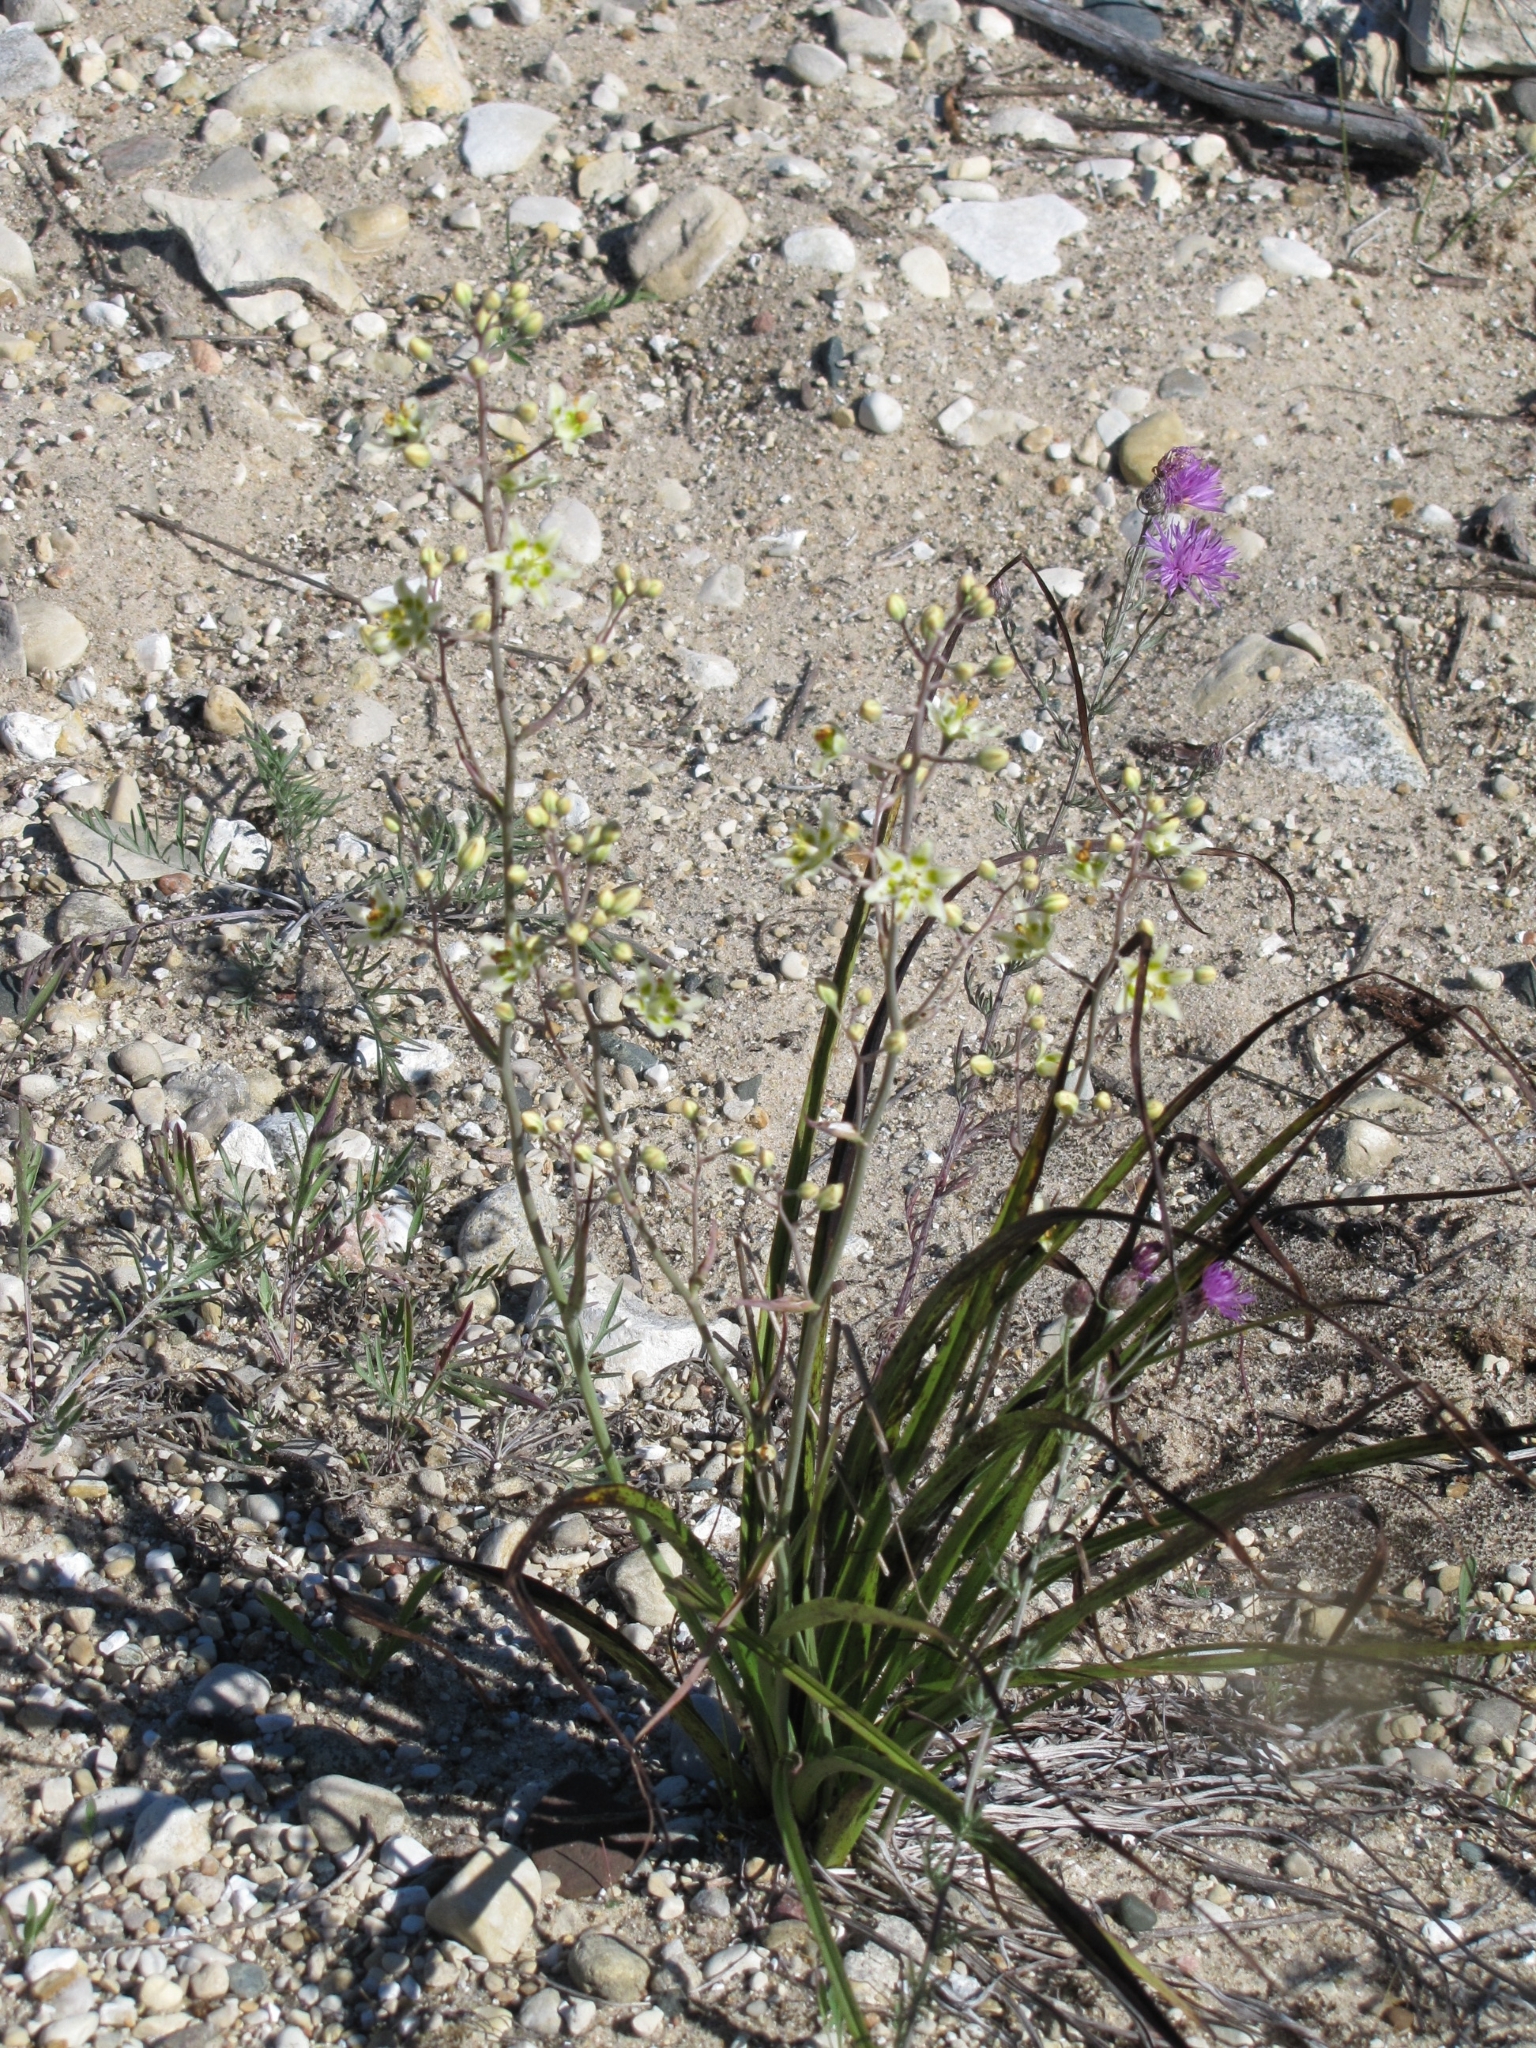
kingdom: Plantae
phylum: Tracheophyta
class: Liliopsida
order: Liliales
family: Melanthiaceae
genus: Anticlea
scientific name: Anticlea elegans
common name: Mountain death camas
